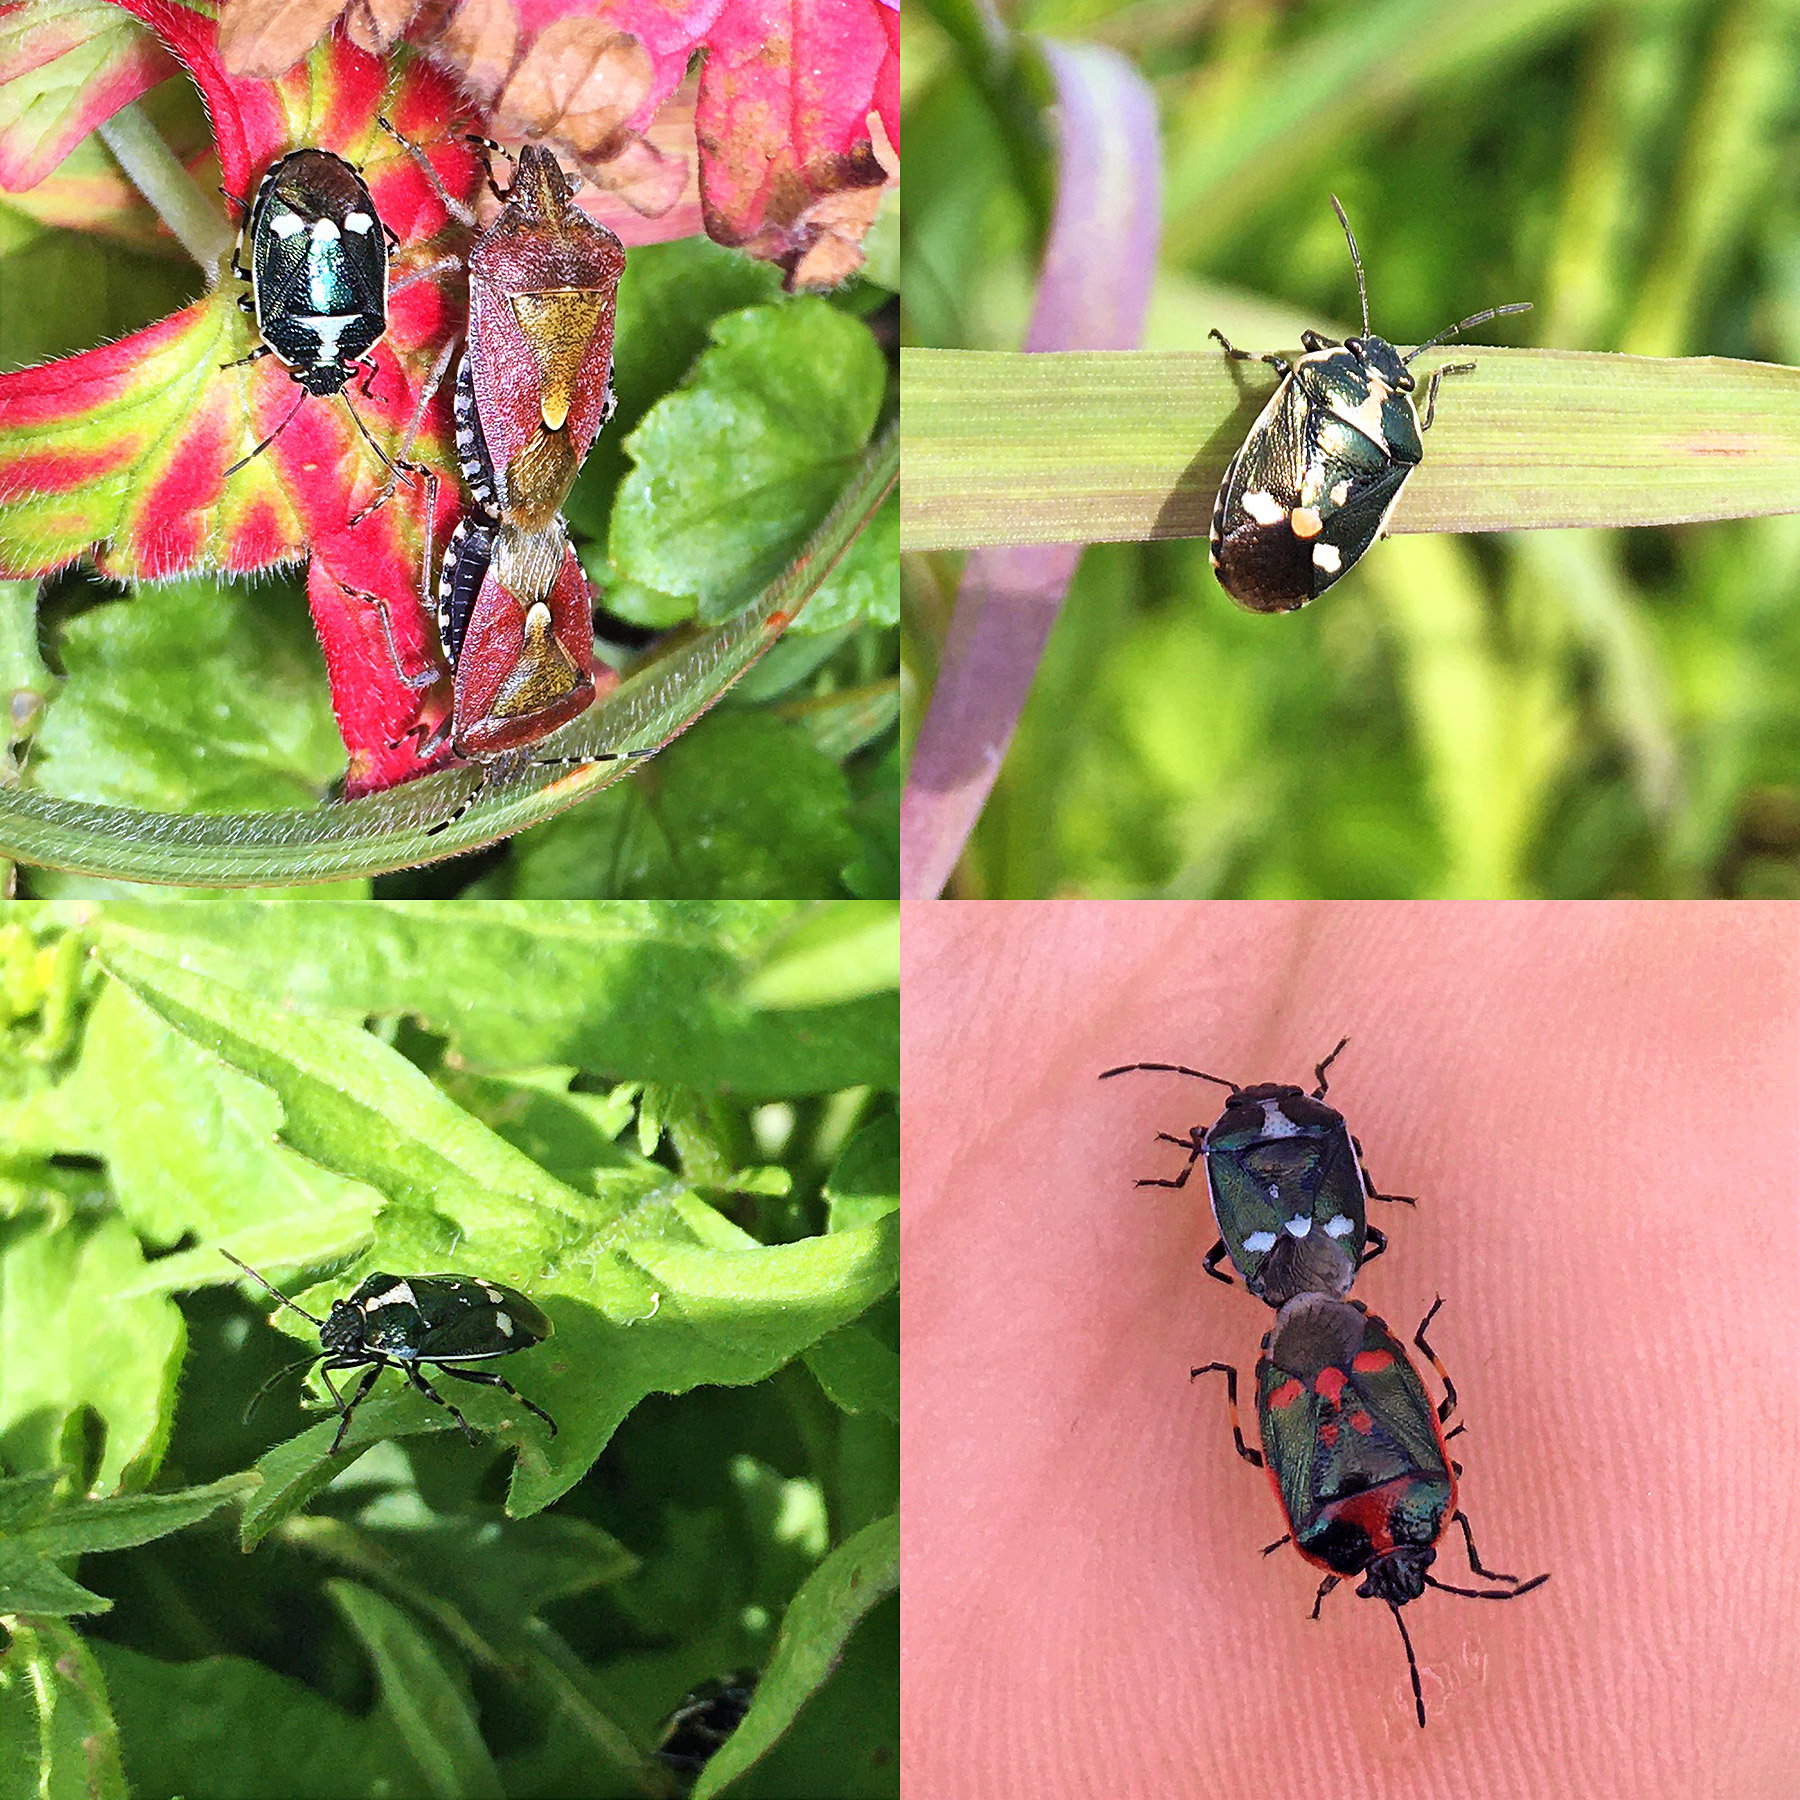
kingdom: Animalia
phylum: Arthropoda
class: Insecta
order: Hemiptera
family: Pentatomidae
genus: Eurydema
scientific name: Eurydema oleracea
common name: Cabbage bug
